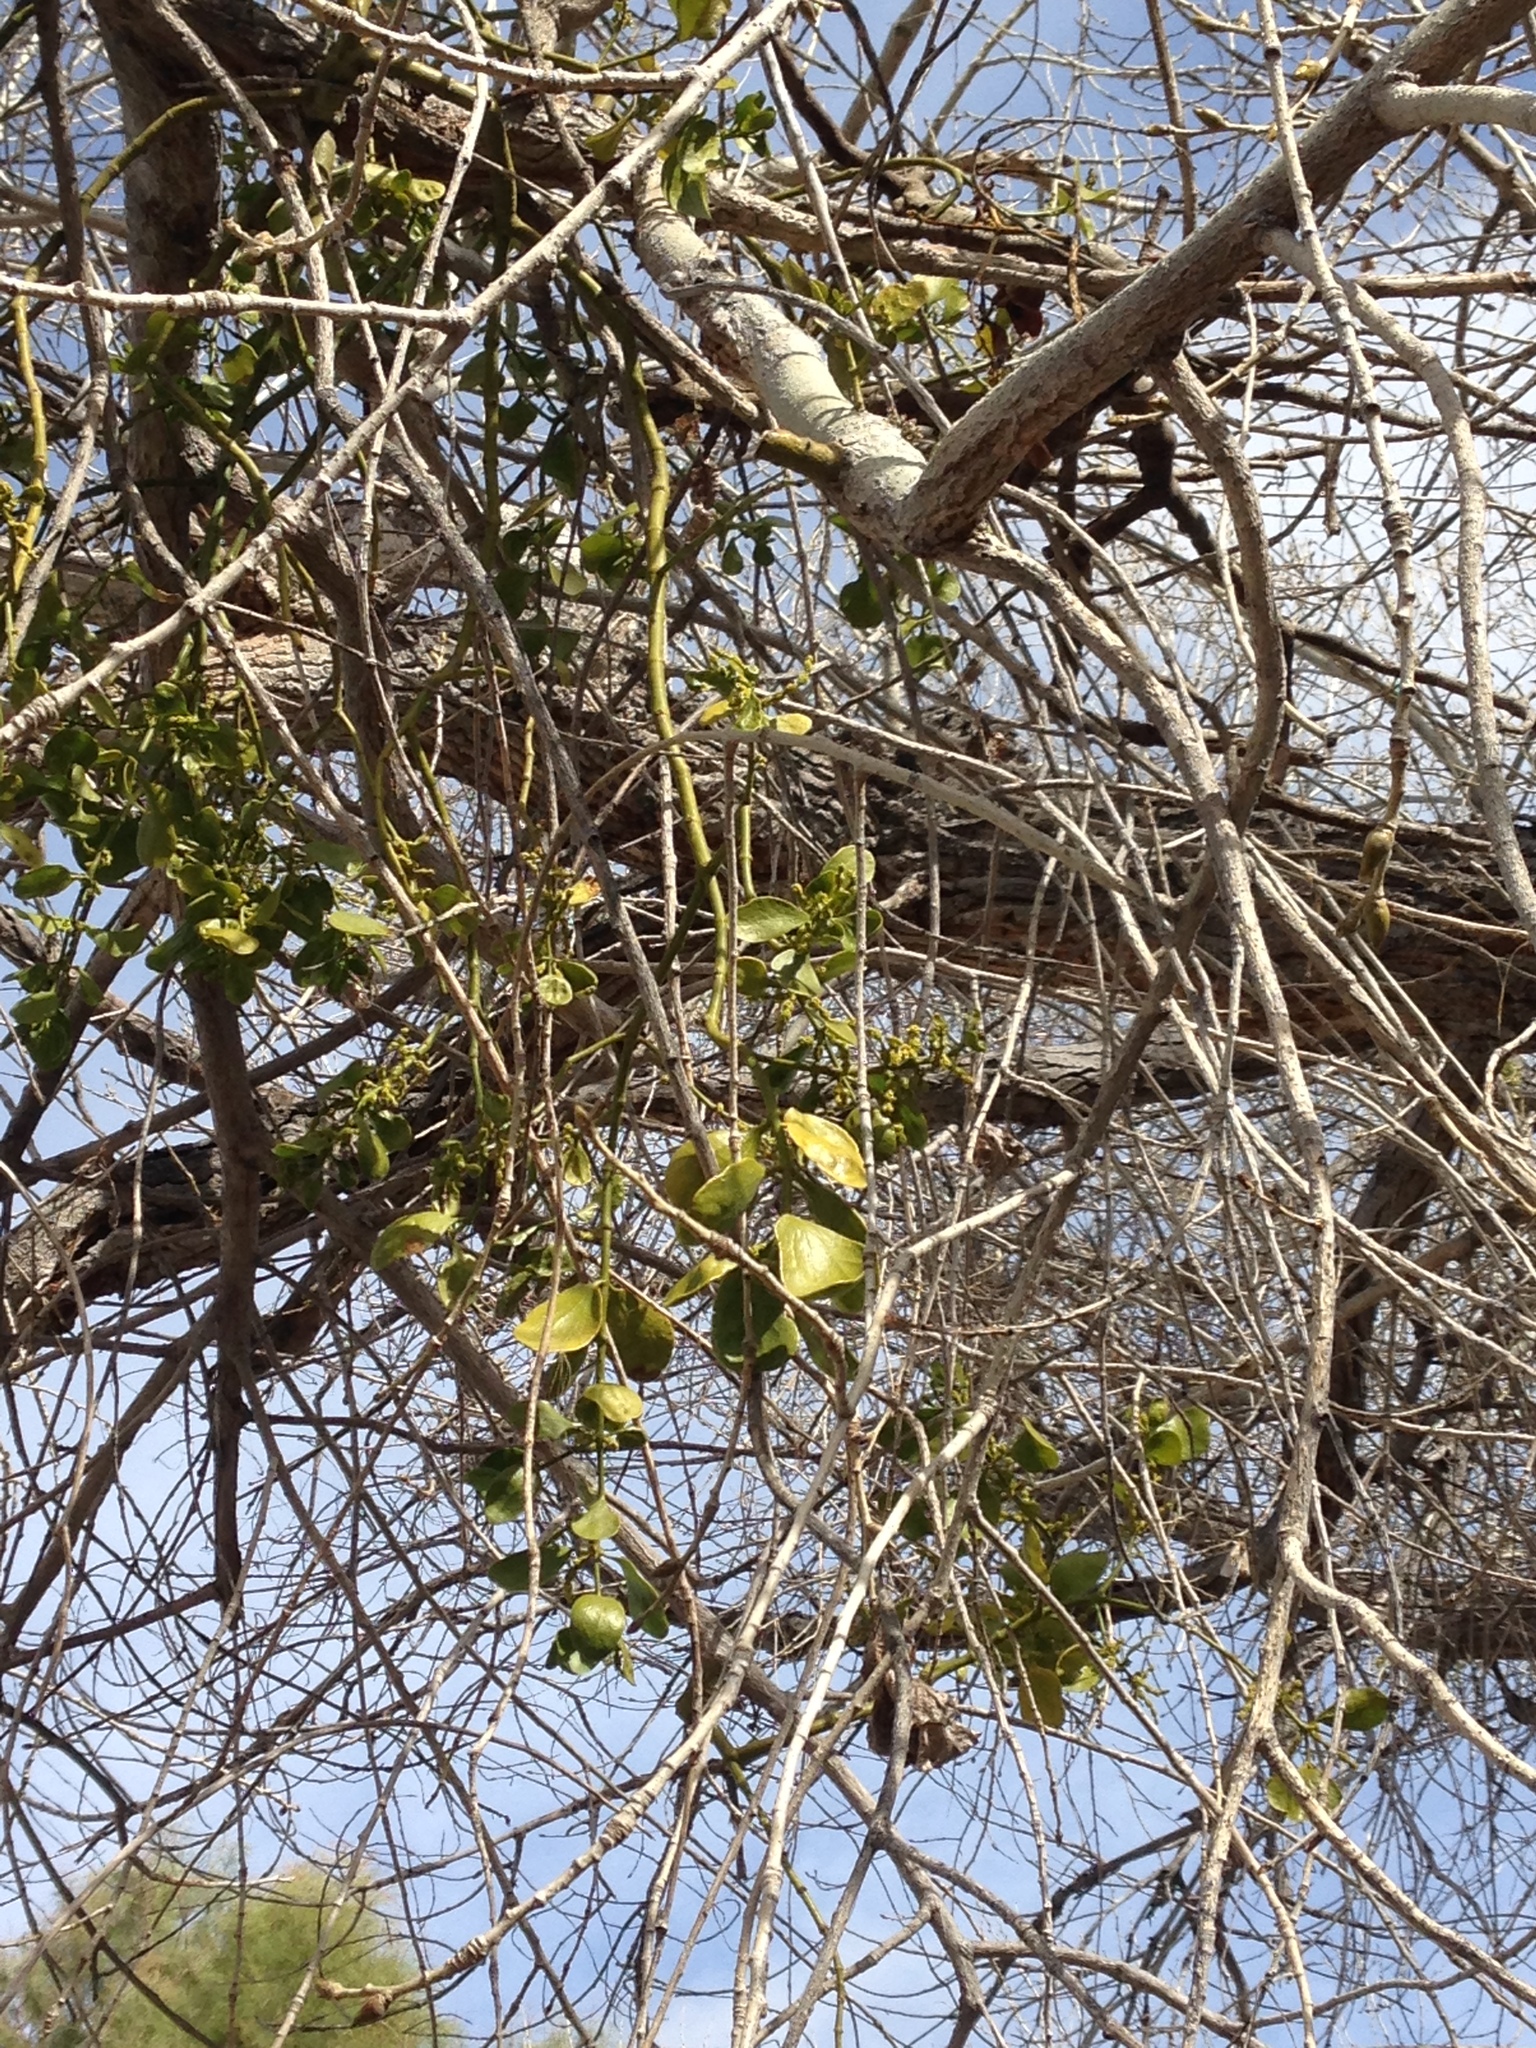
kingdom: Plantae
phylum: Tracheophyta
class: Magnoliopsida
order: Santalales
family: Viscaceae
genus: Phoradendron
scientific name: Phoradendron
